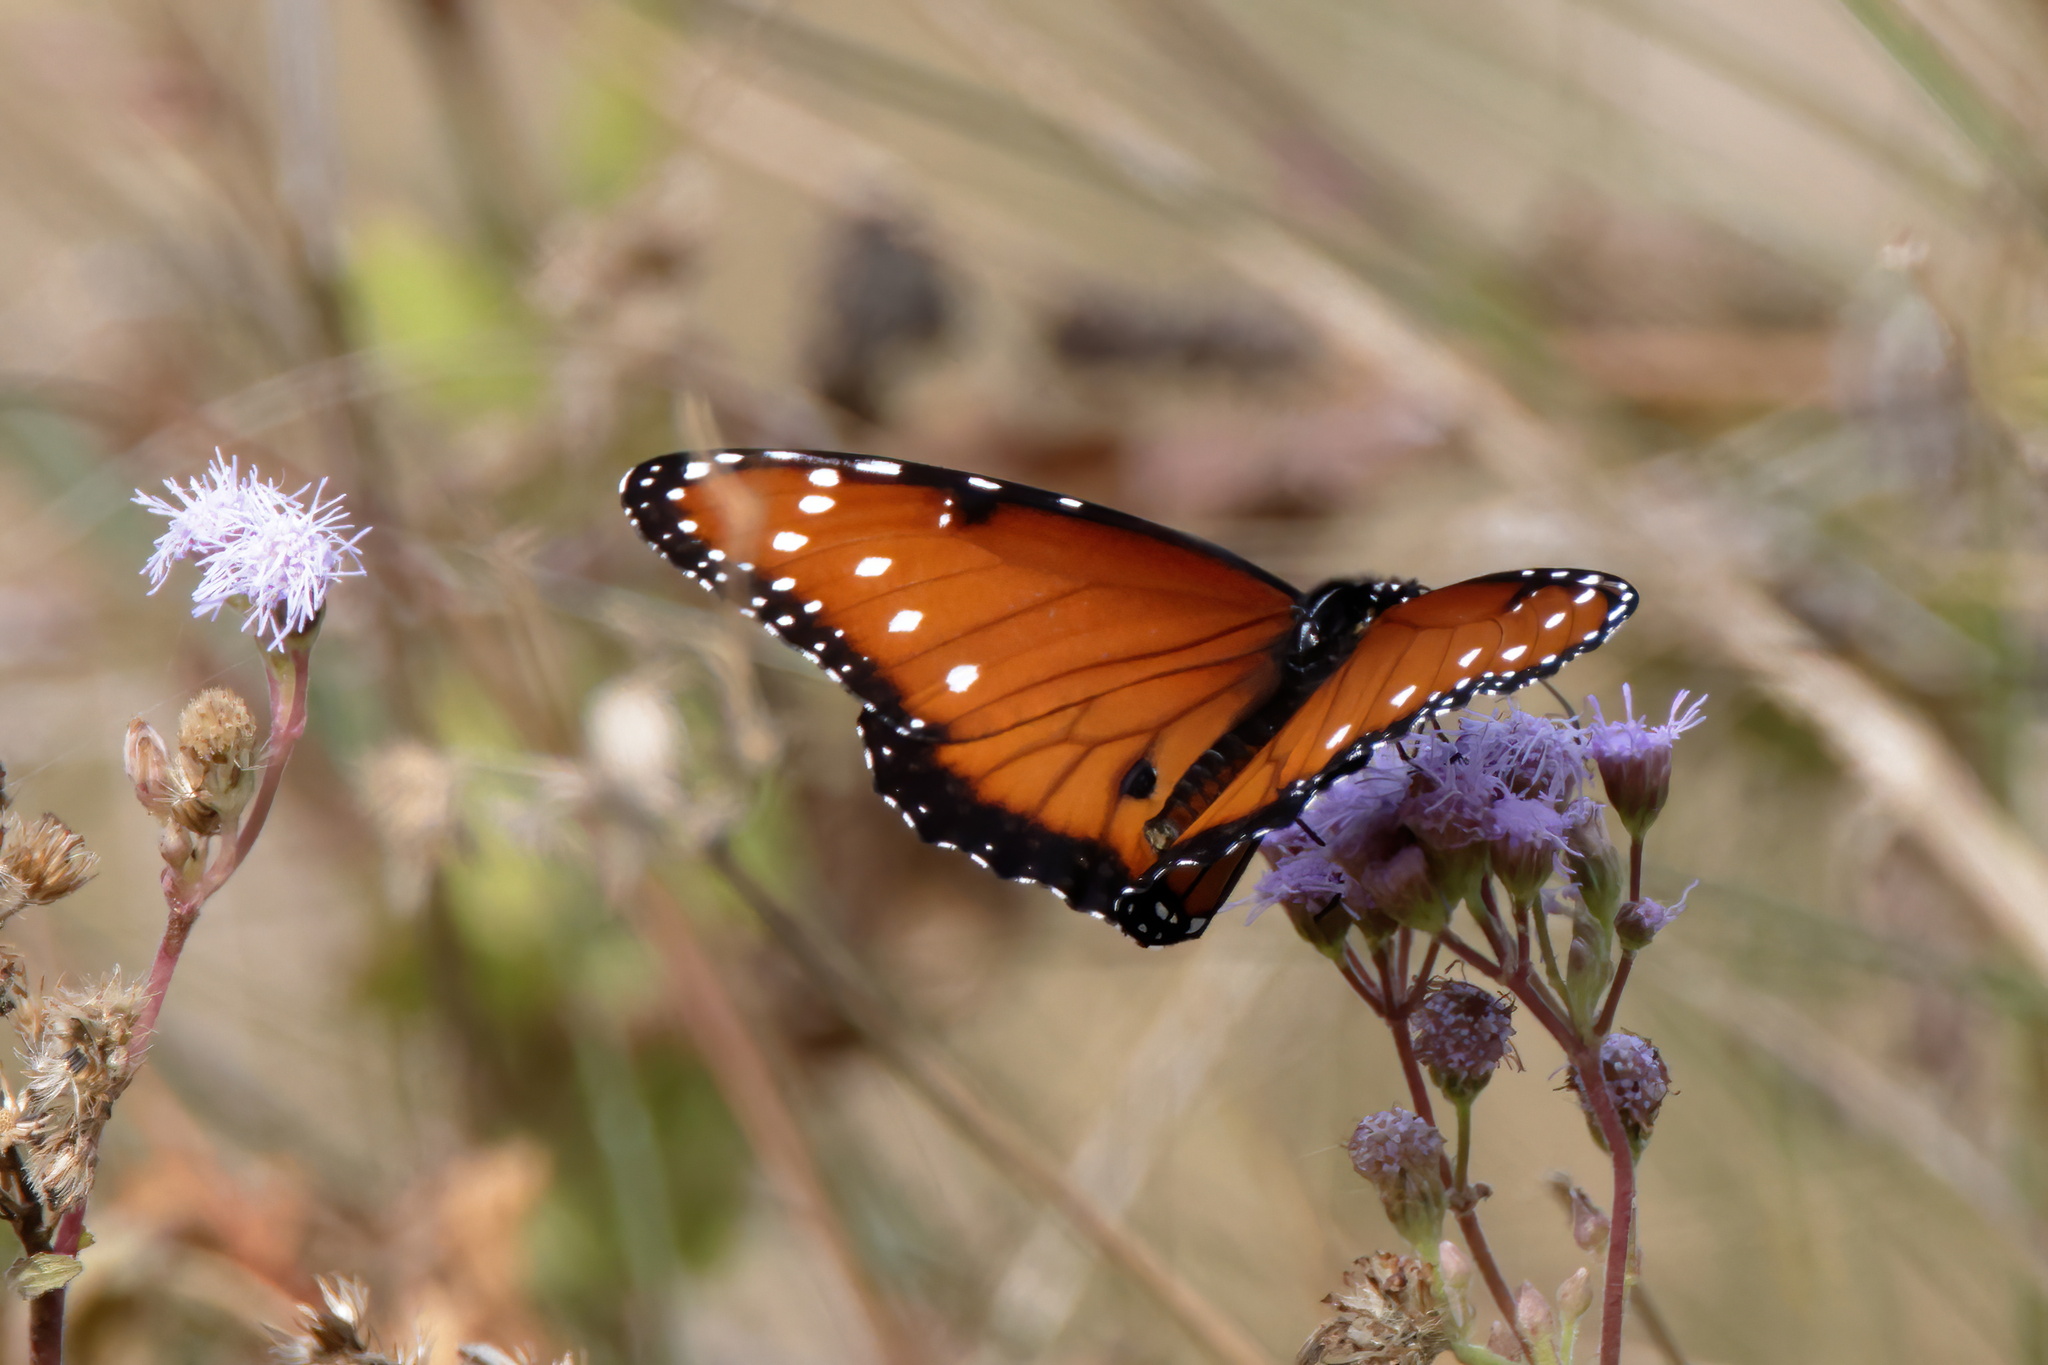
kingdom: Animalia
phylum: Arthropoda
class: Insecta
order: Lepidoptera
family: Nymphalidae
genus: Danaus
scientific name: Danaus gilippus
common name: Queen
